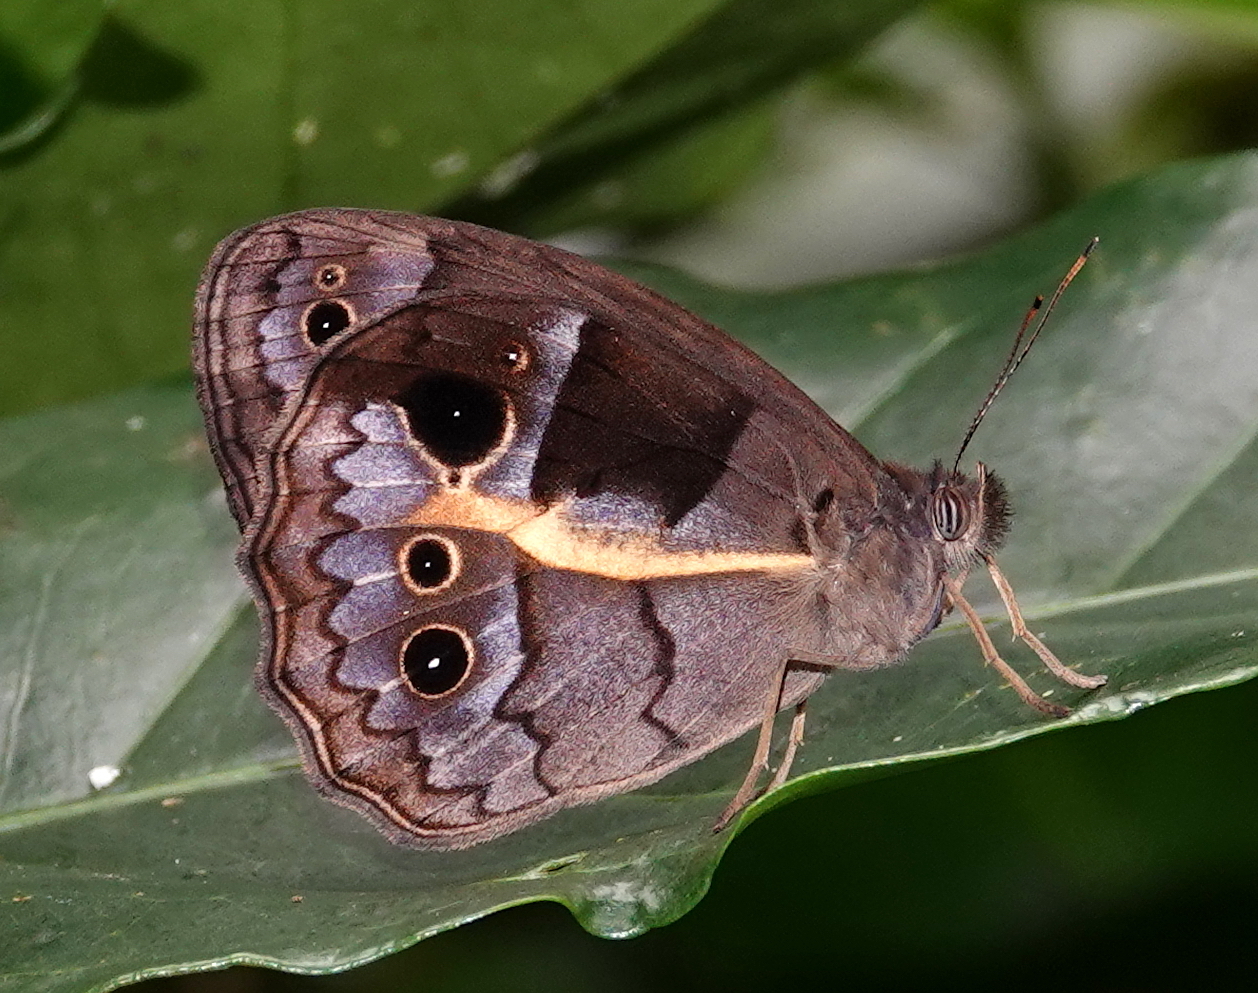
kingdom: Animalia
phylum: Arthropoda
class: Insecta
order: Lepidoptera
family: Nymphalidae
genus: Posttaygetis
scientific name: Posttaygetis penelea
